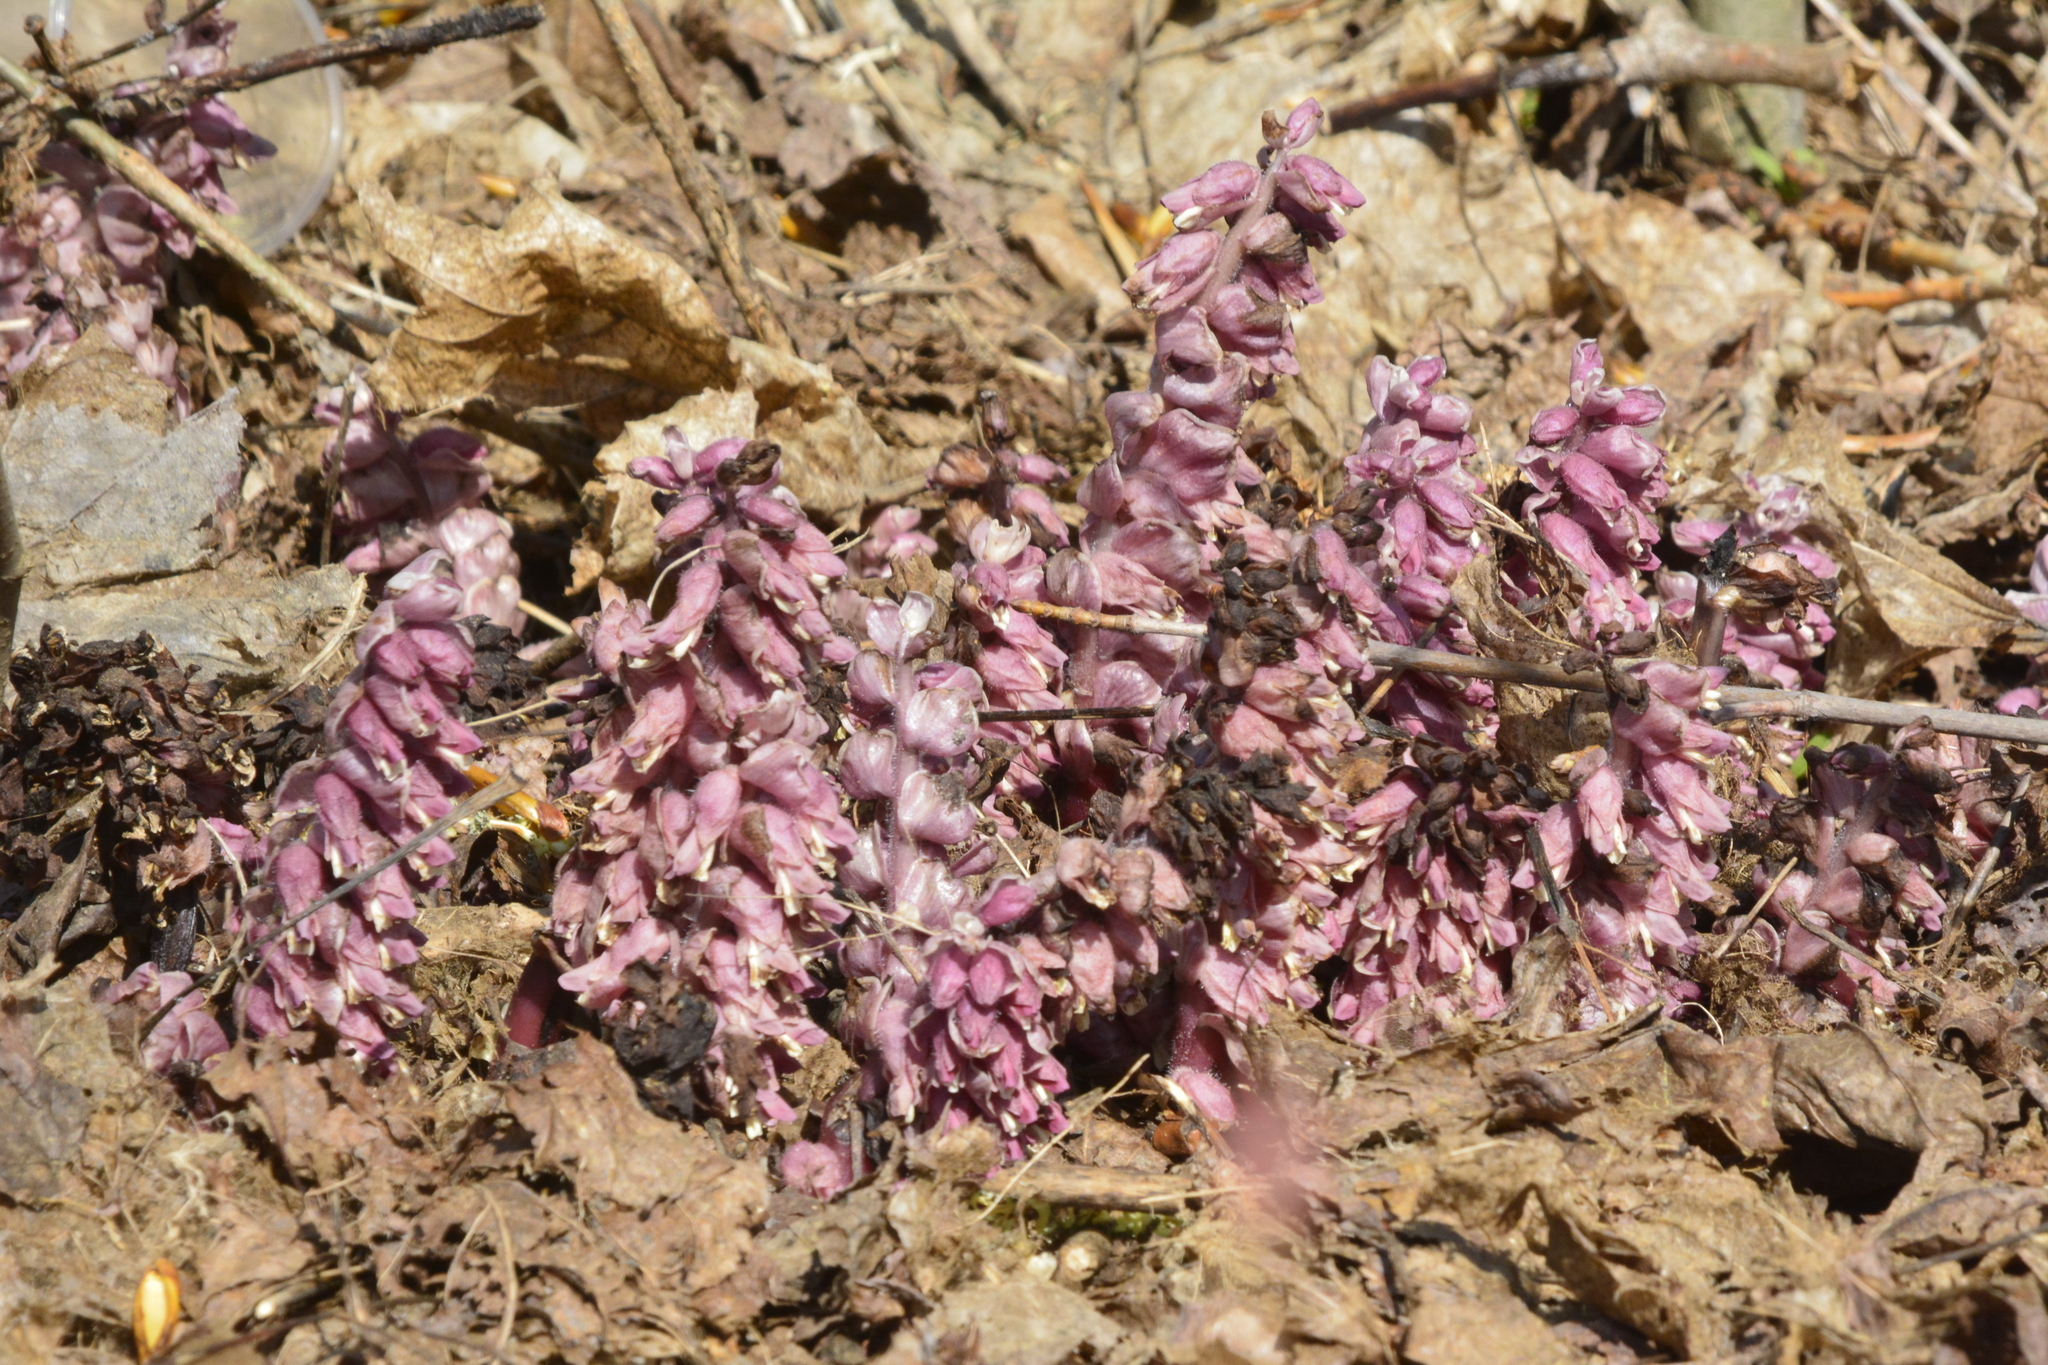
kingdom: Plantae
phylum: Tracheophyta
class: Magnoliopsida
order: Lamiales
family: Orobanchaceae
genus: Lathraea
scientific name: Lathraea squamaria
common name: Toothwort
